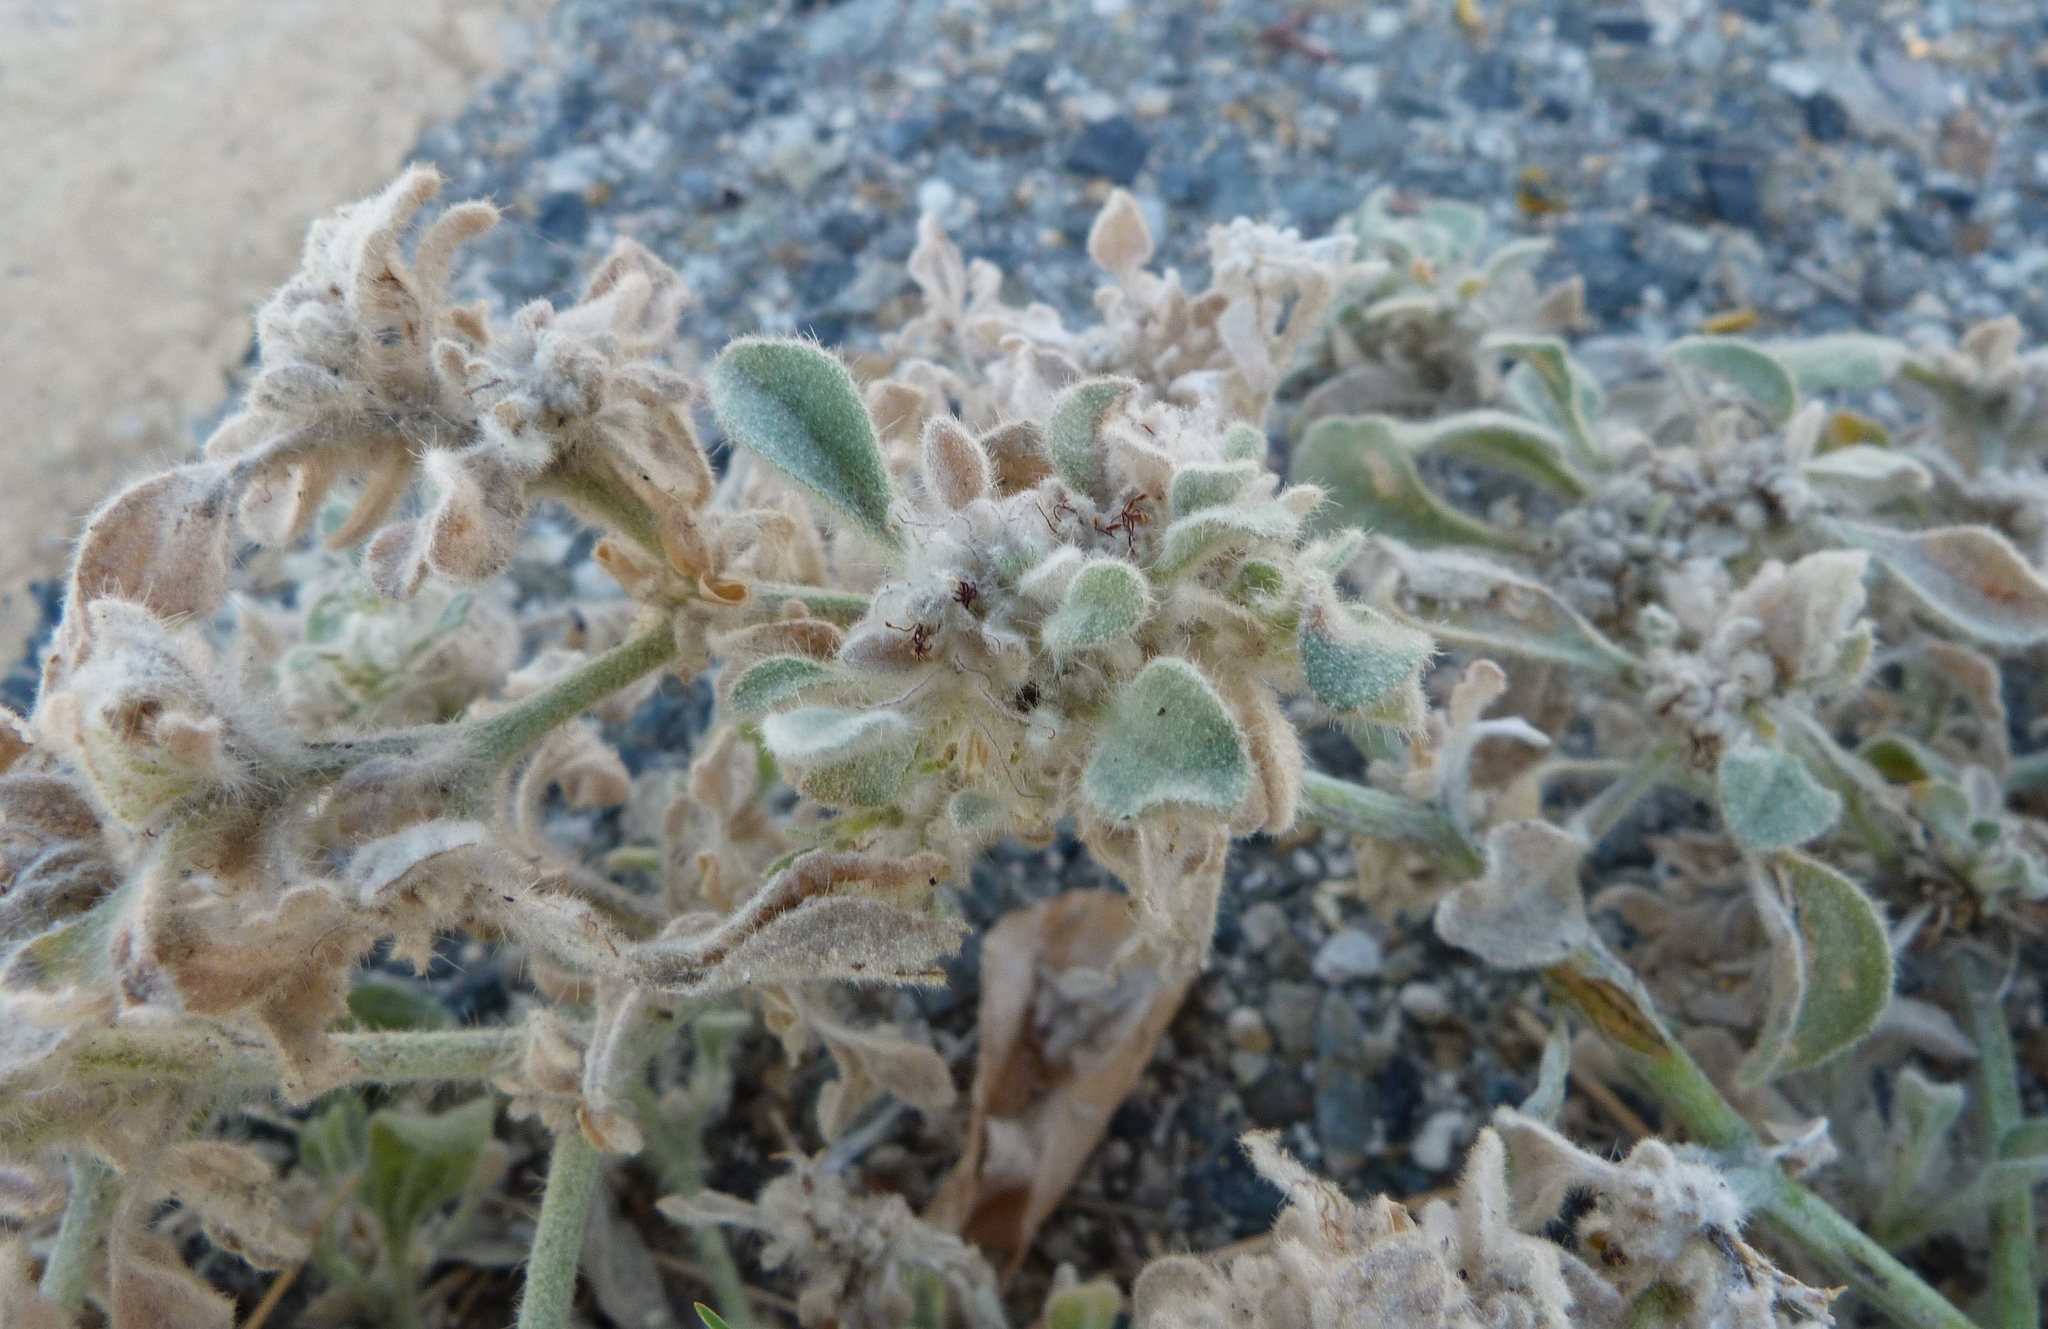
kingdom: Plantae
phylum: Tracheophyta
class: Magnoliopsida
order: Malpighiales
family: Euphorbiaceae
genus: Croton
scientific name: Croton setiger
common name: Dove weed
